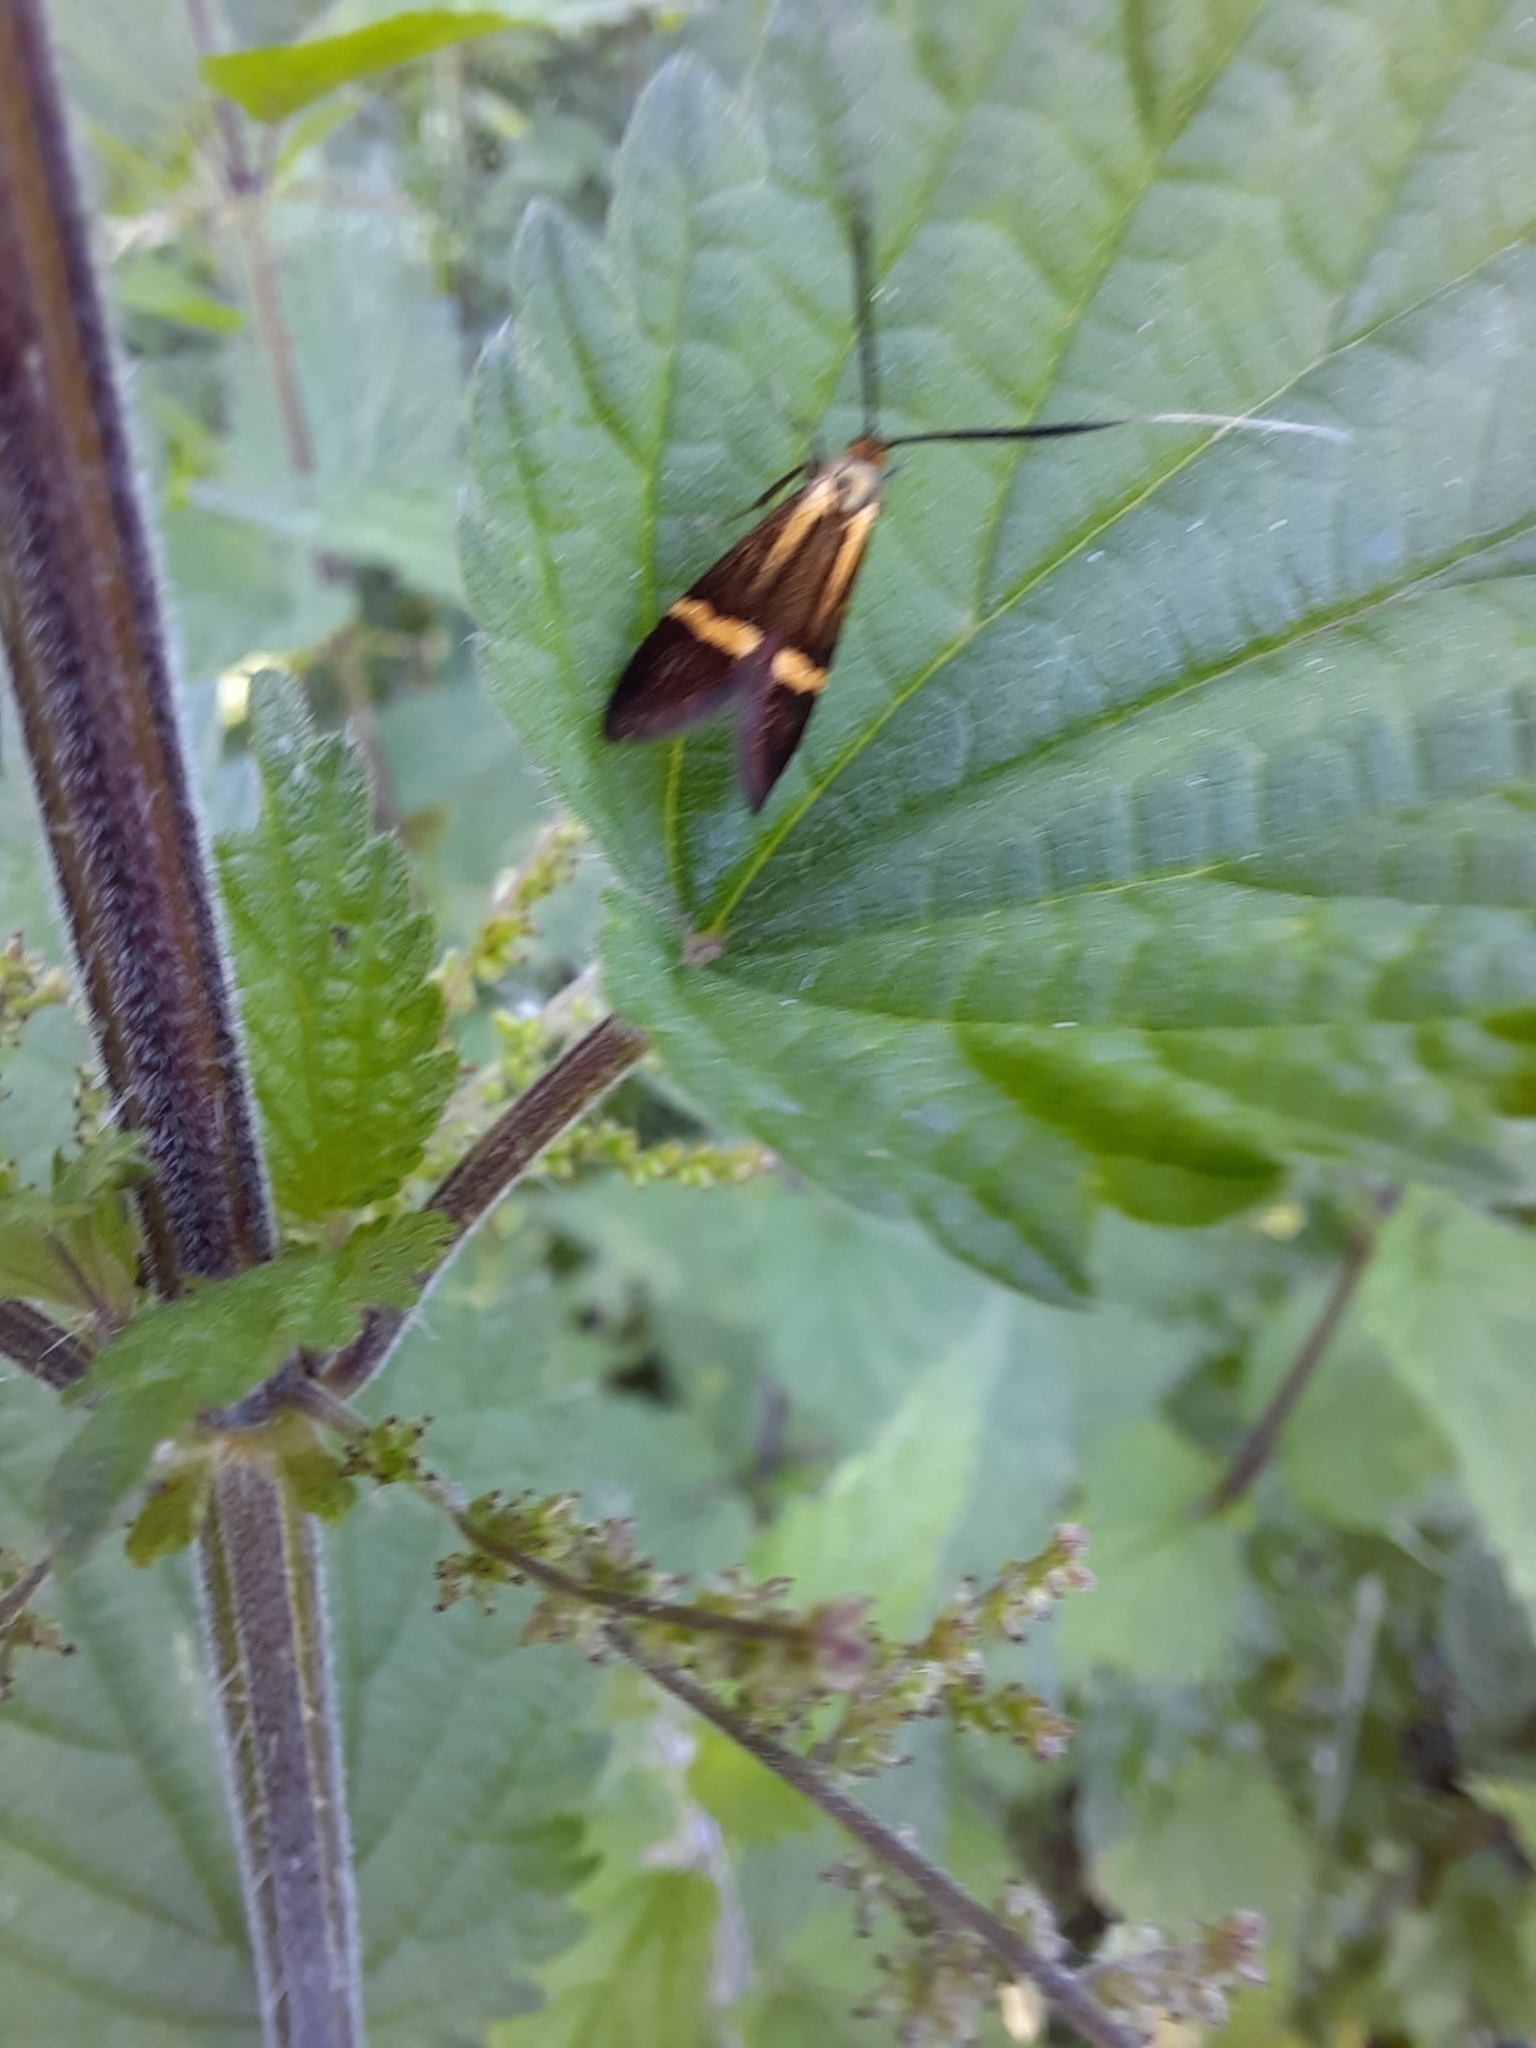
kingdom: Animalia
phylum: Arthropoda
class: Insecta
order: Lepidoptera
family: Adelidae
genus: Nemophora
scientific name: Nemophora degeerella
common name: Yellow-barred long-horn
